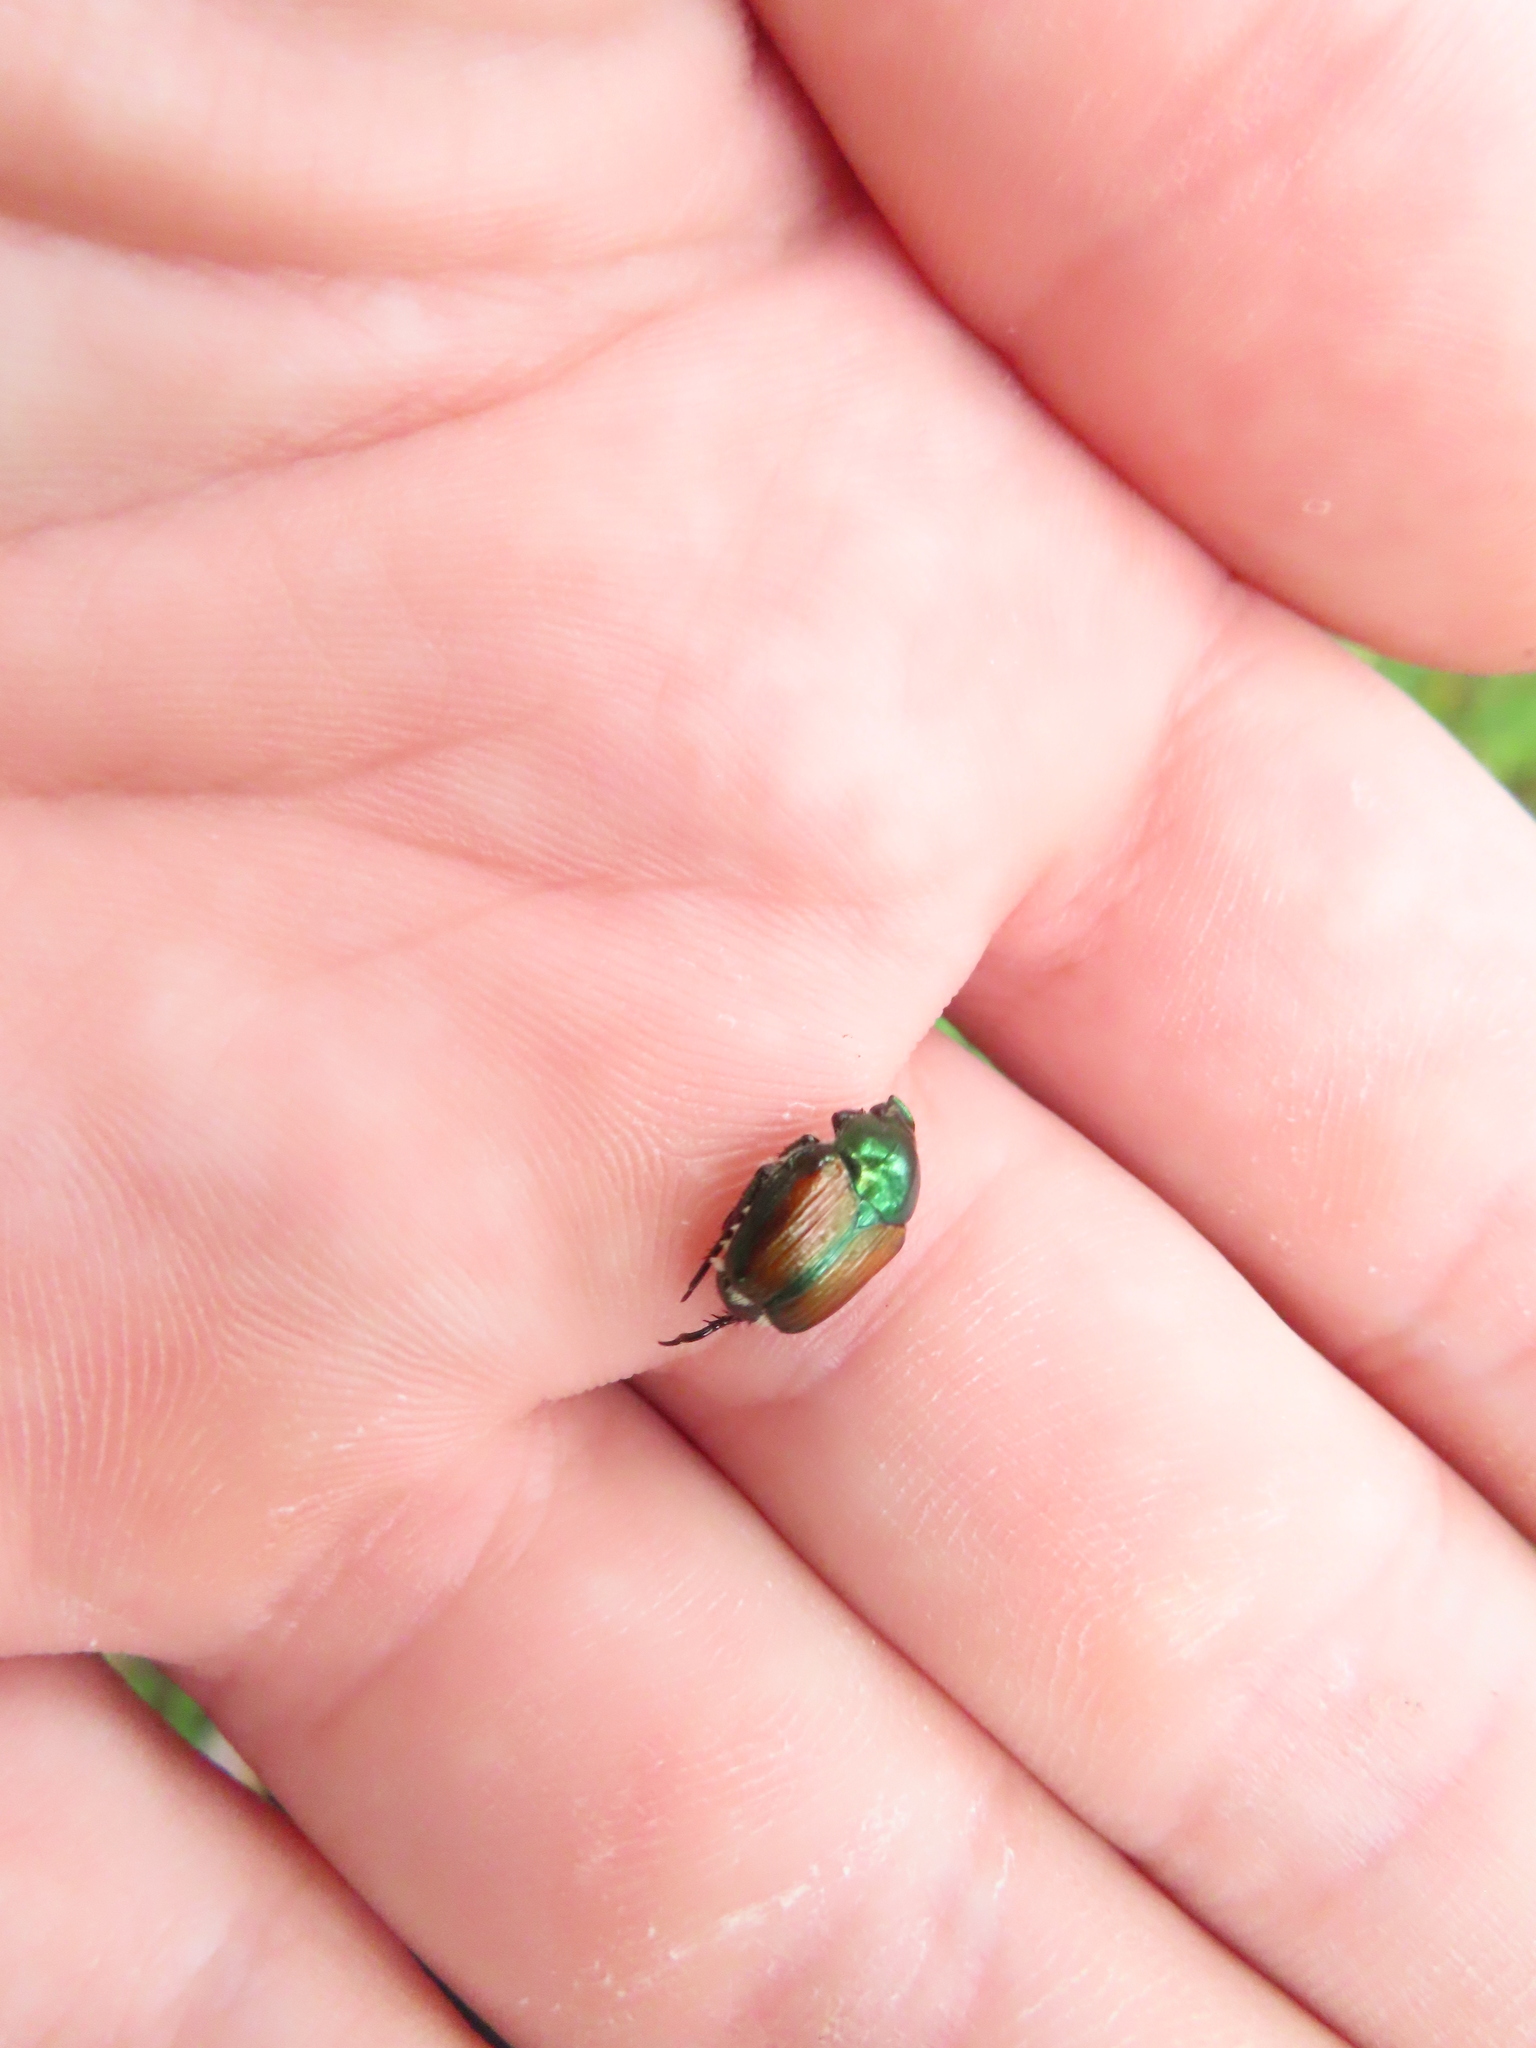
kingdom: Animalia
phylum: Arthropoda
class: Insecta
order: Coleoptera
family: Scarabaeidae
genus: Popillia
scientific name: Popillia japonica
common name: Japanese beetle
